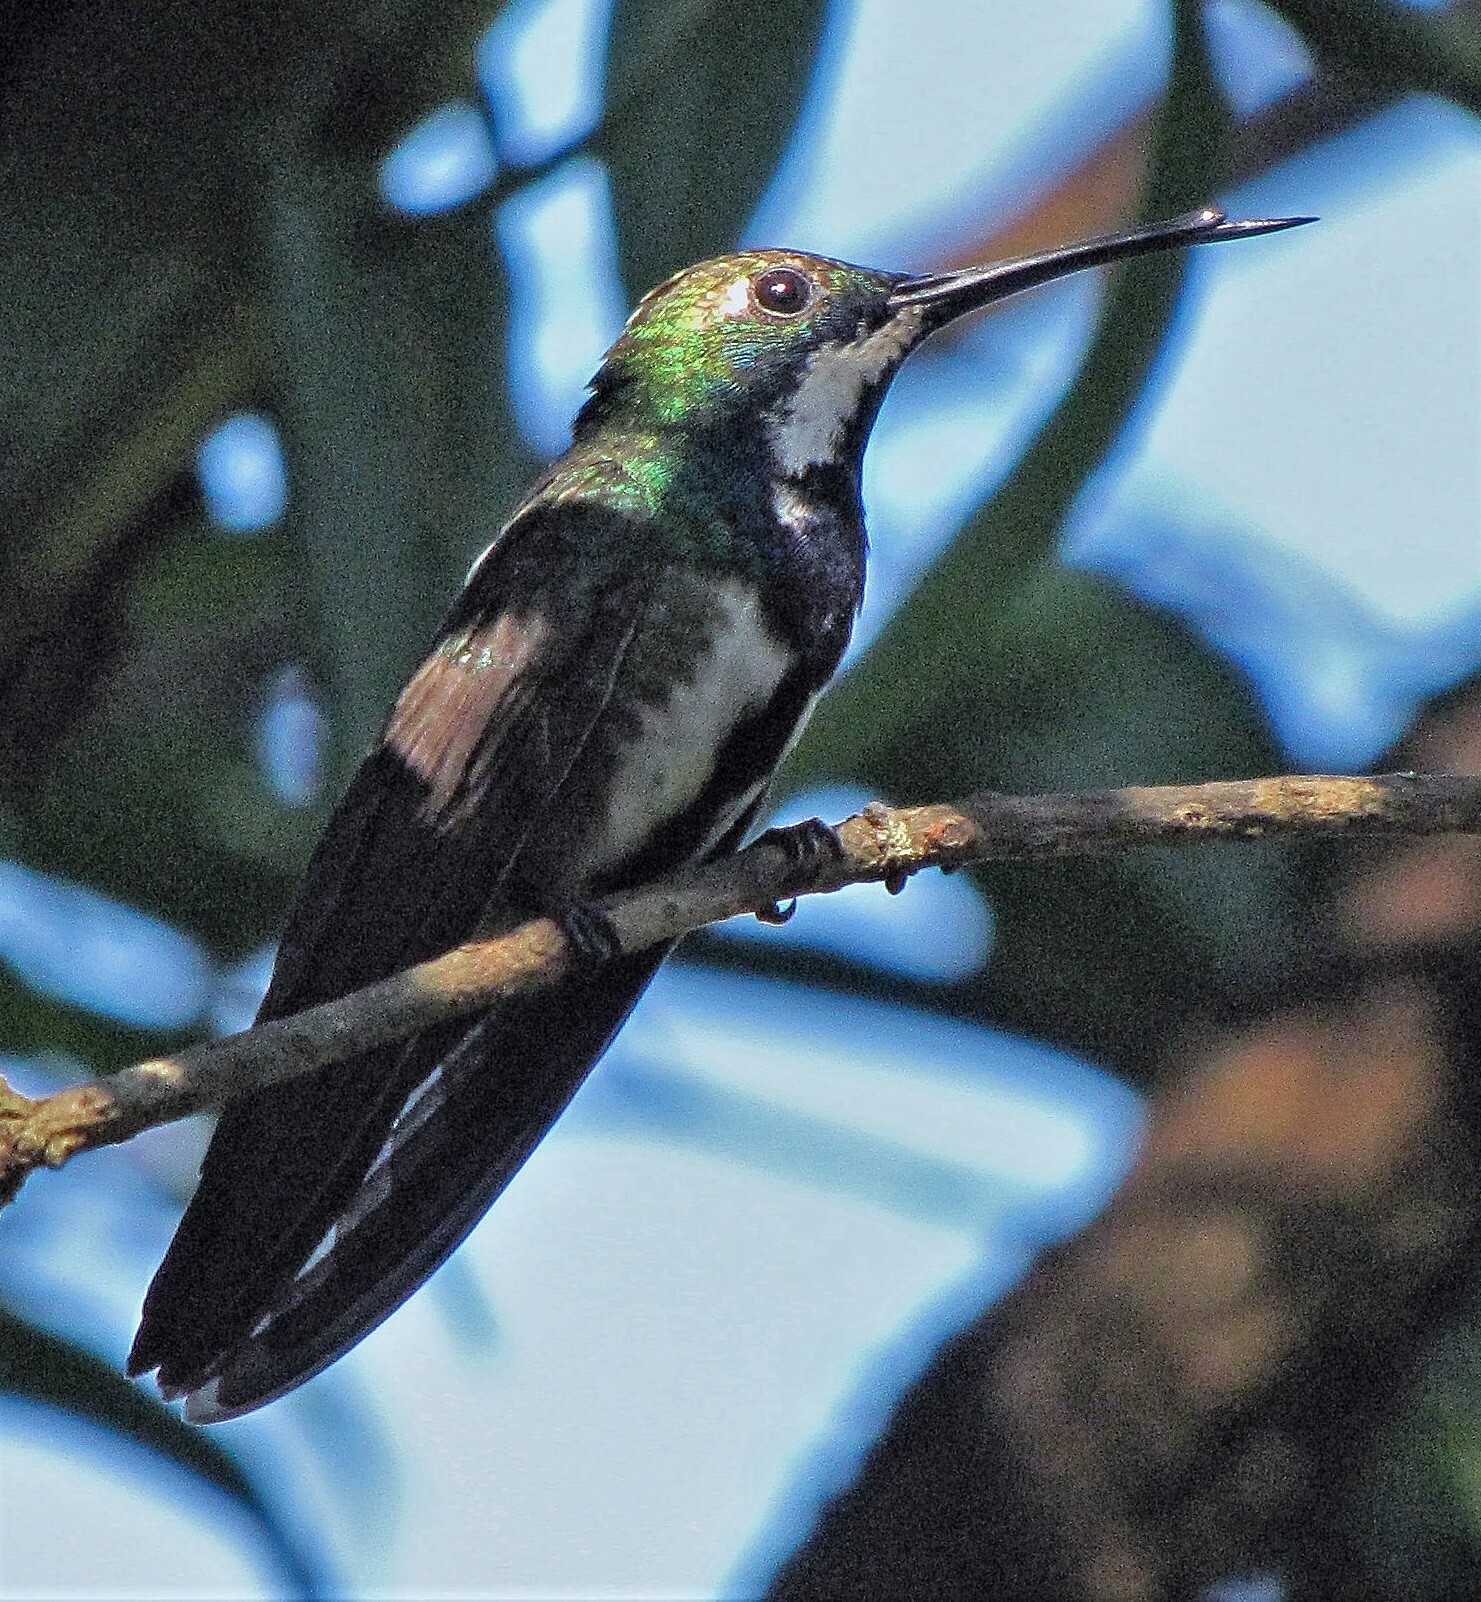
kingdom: Animalia
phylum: Chordata
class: Aves
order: Apodiformes
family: Trochilidae
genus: Anthracothorax
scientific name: Anthracothorax nigricollis
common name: Black-throated mango
